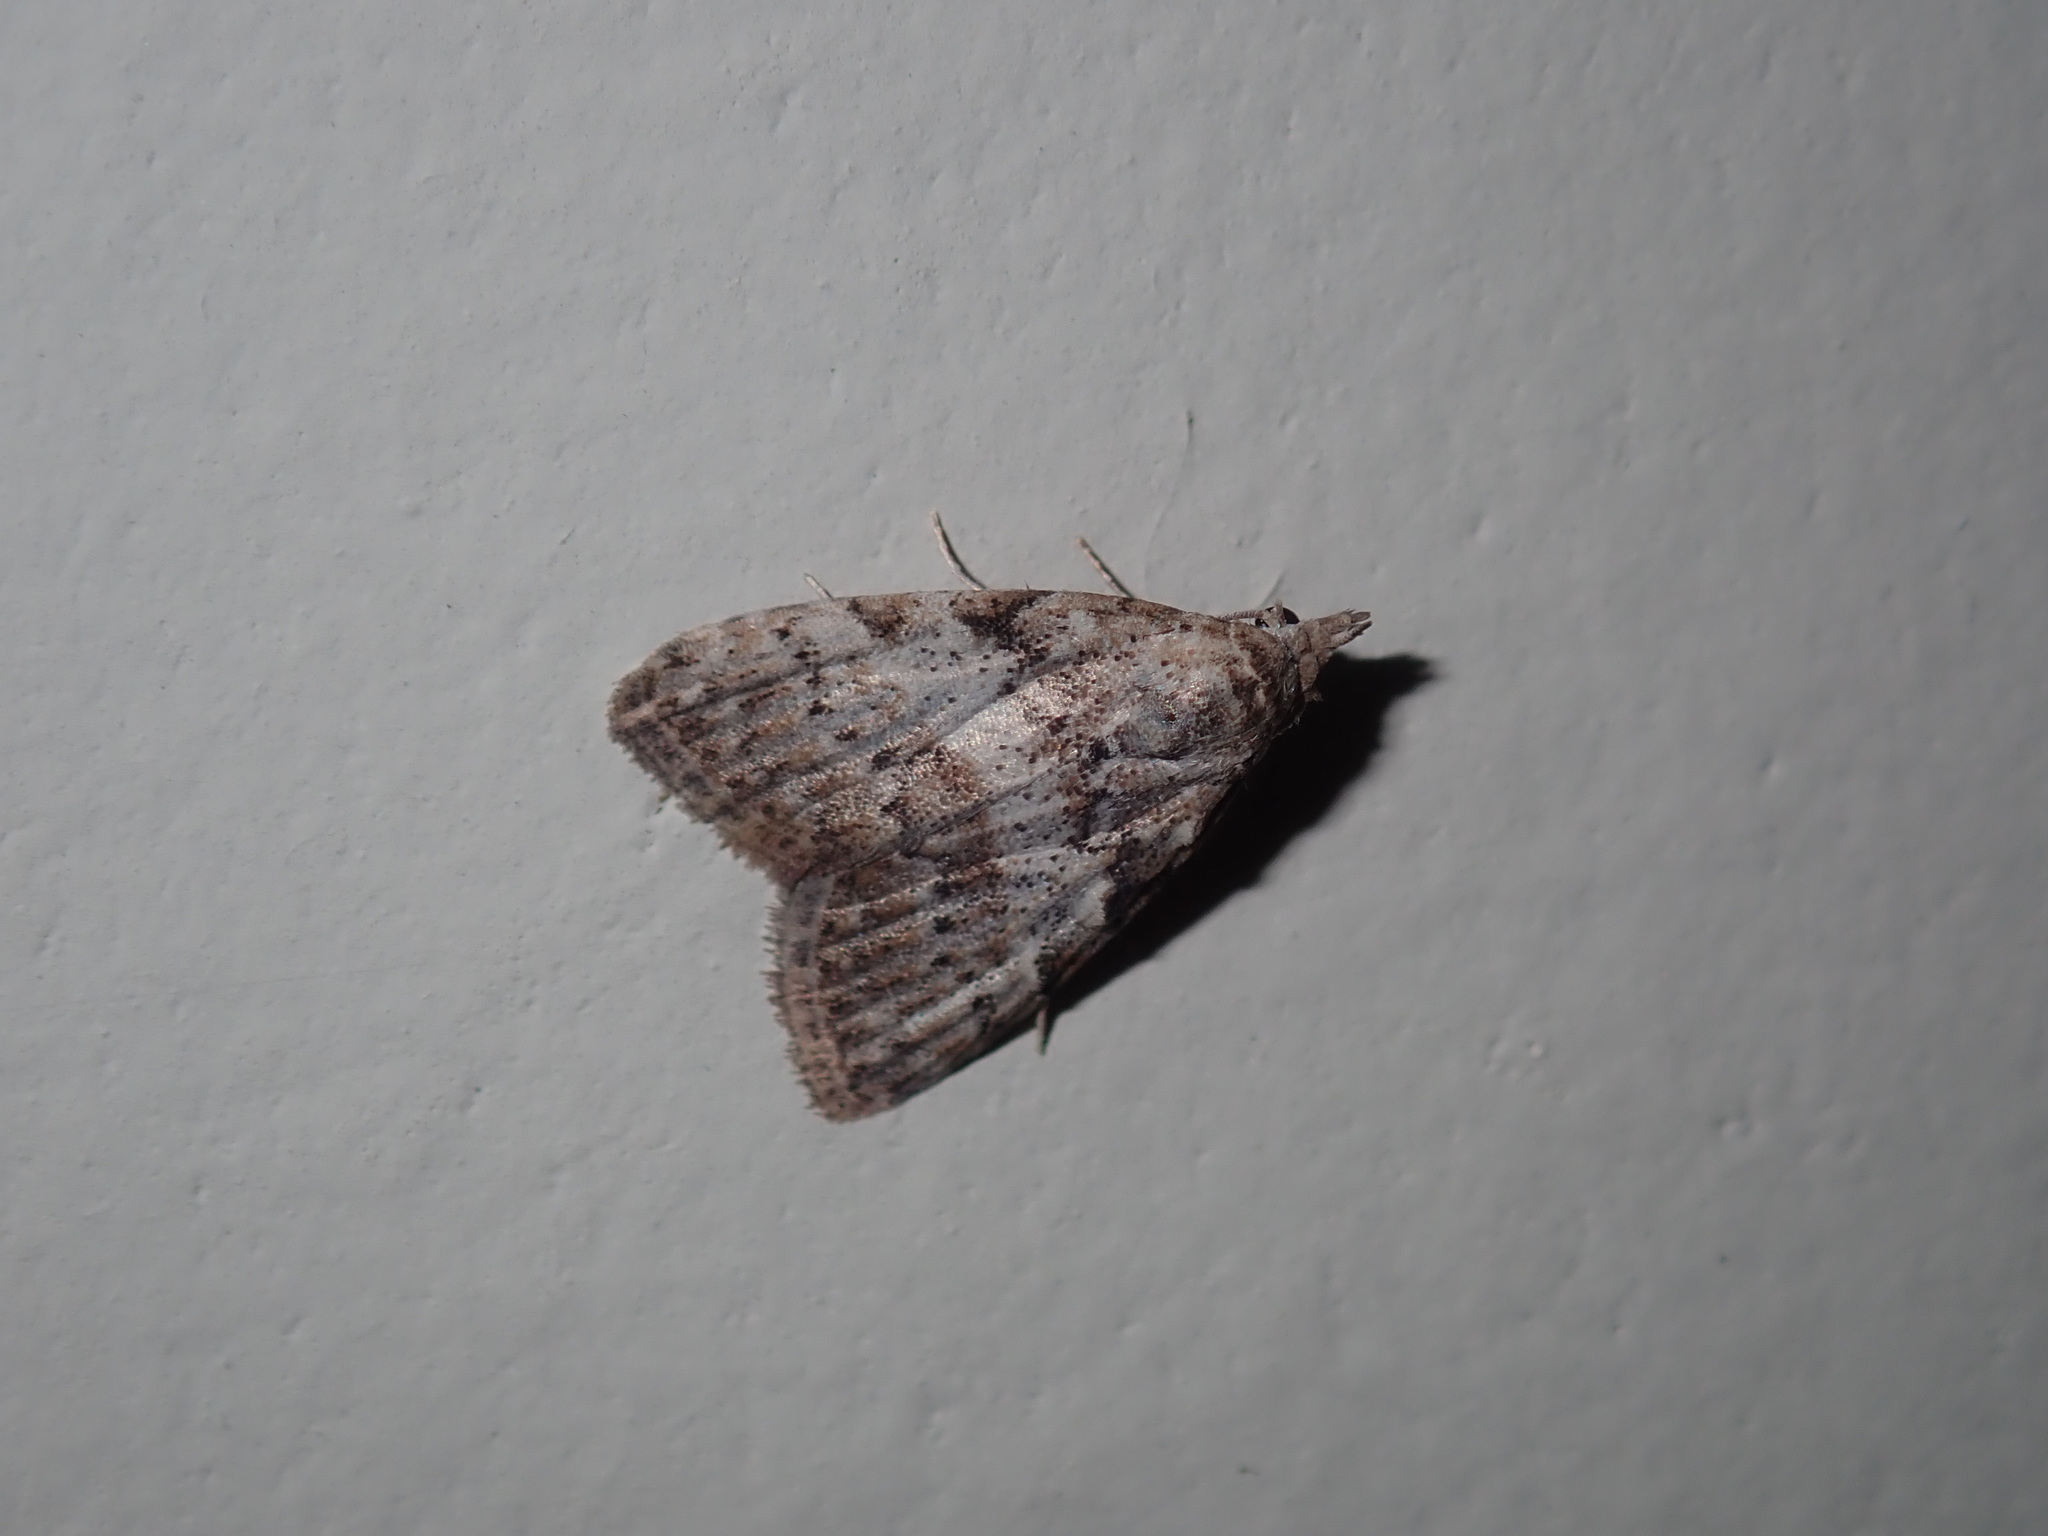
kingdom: Animalia
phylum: Arthropoda
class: Insecta
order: Lepidoptera
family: Nolidae
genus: Nola
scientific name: Nola squalida
